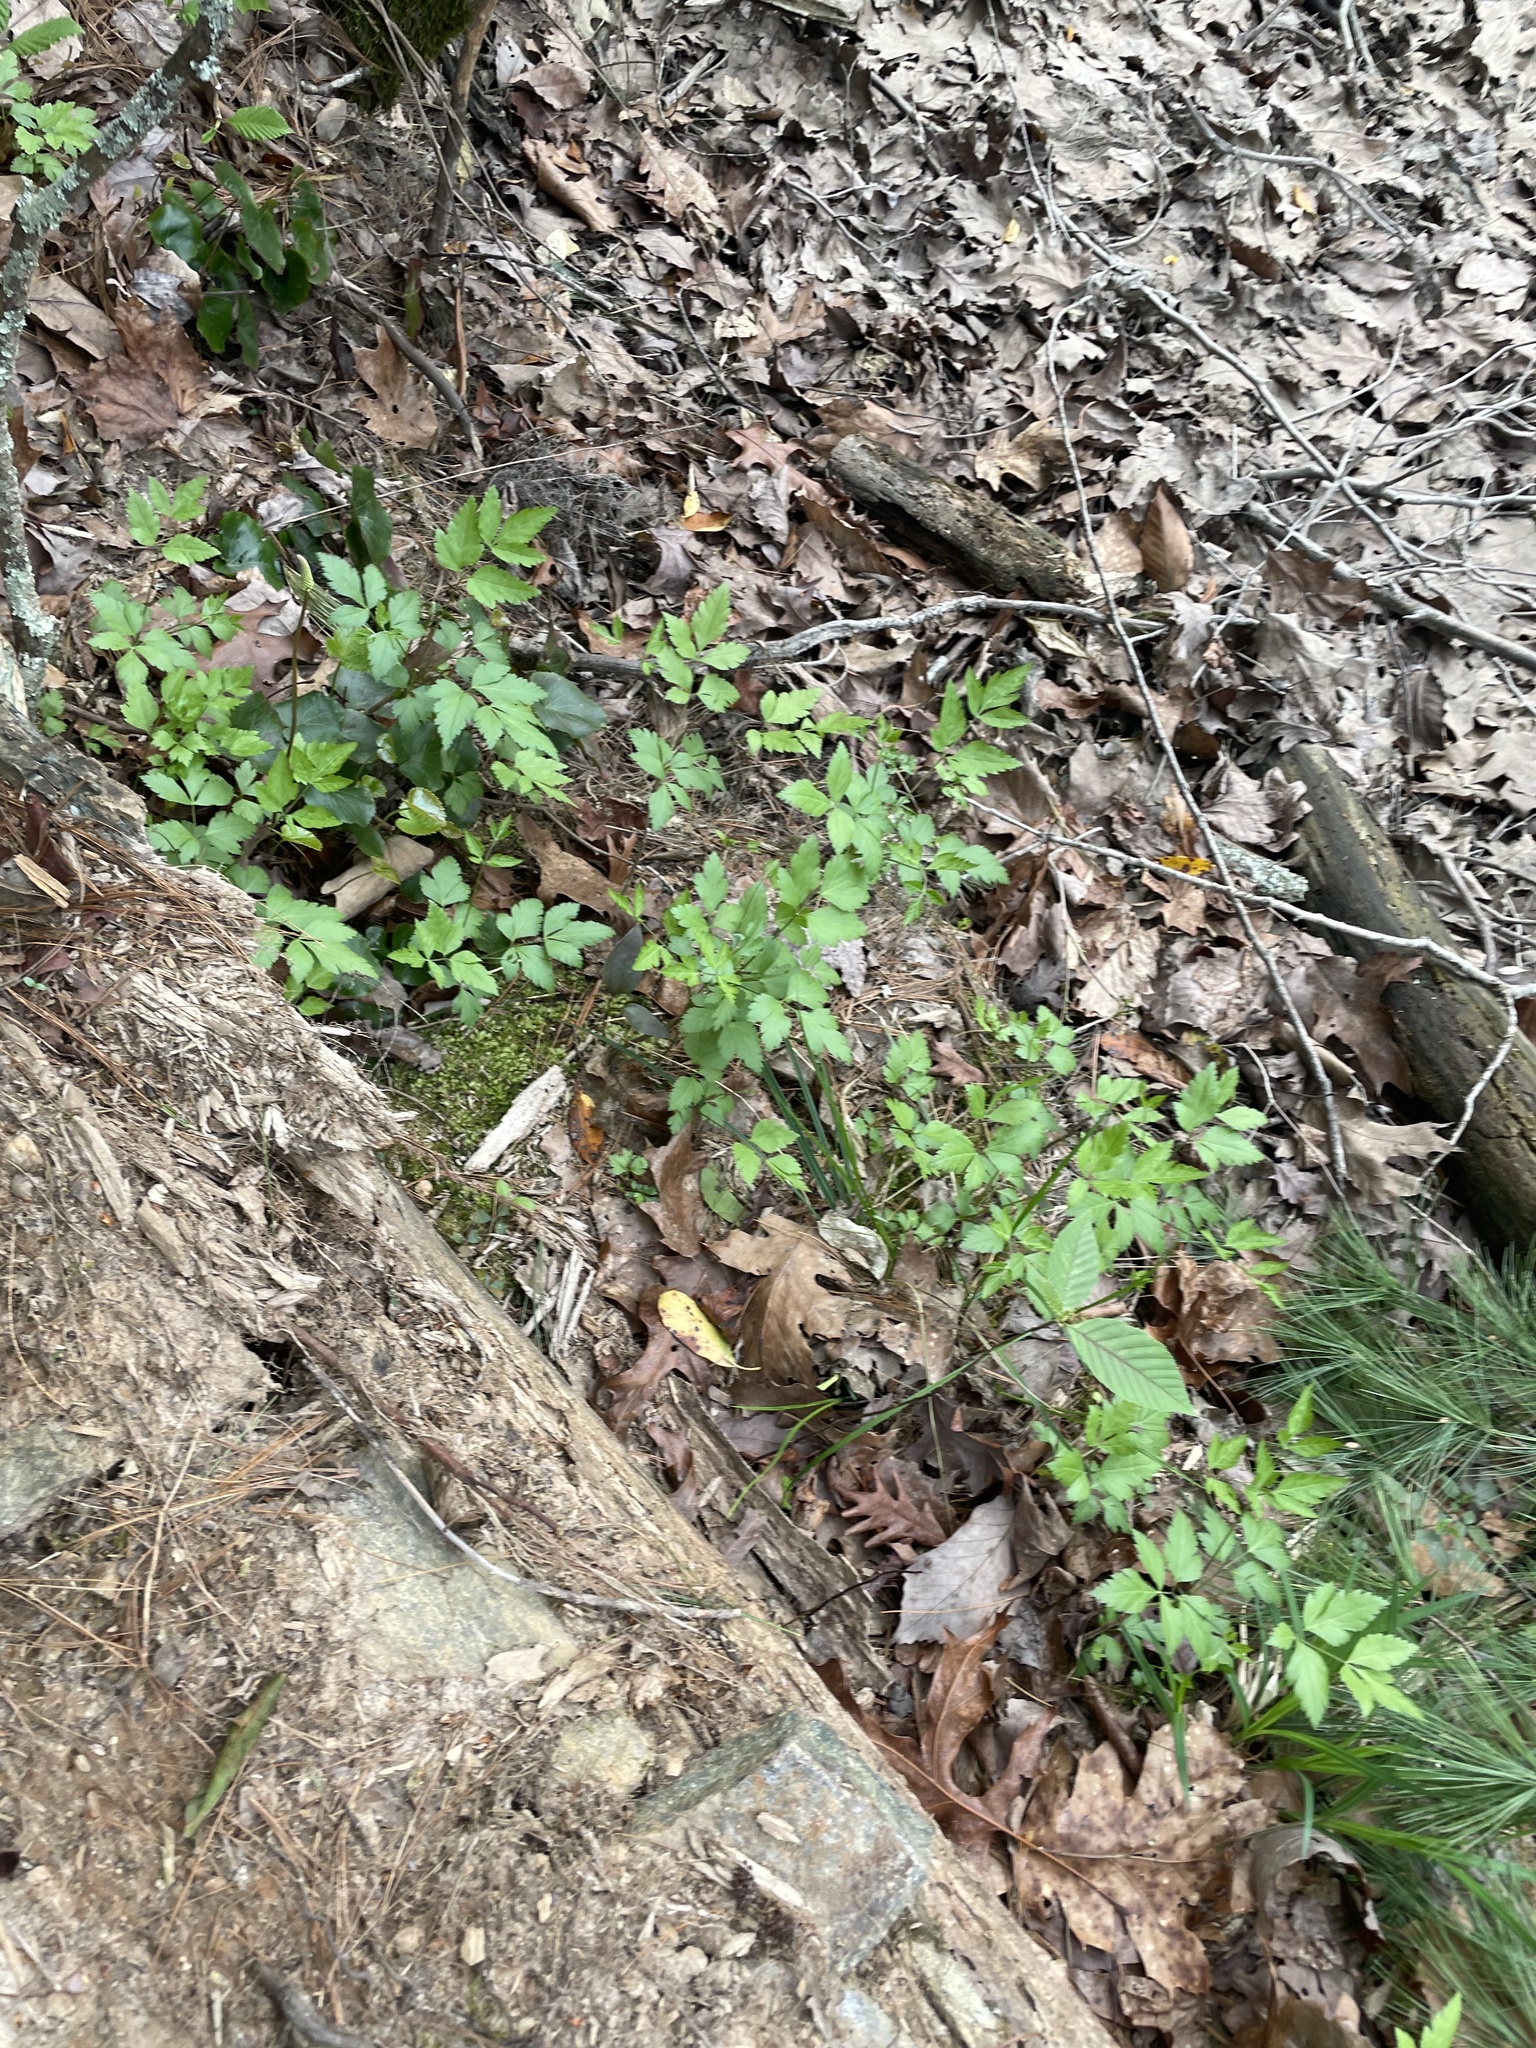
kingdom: Plantae
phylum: Tracheophyta
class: Magnoliopsida
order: Ranunculales
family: Ranunculaceae
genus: Xanthorhiza
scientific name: Xanthorhiza simplicissima
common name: Yellowroot
